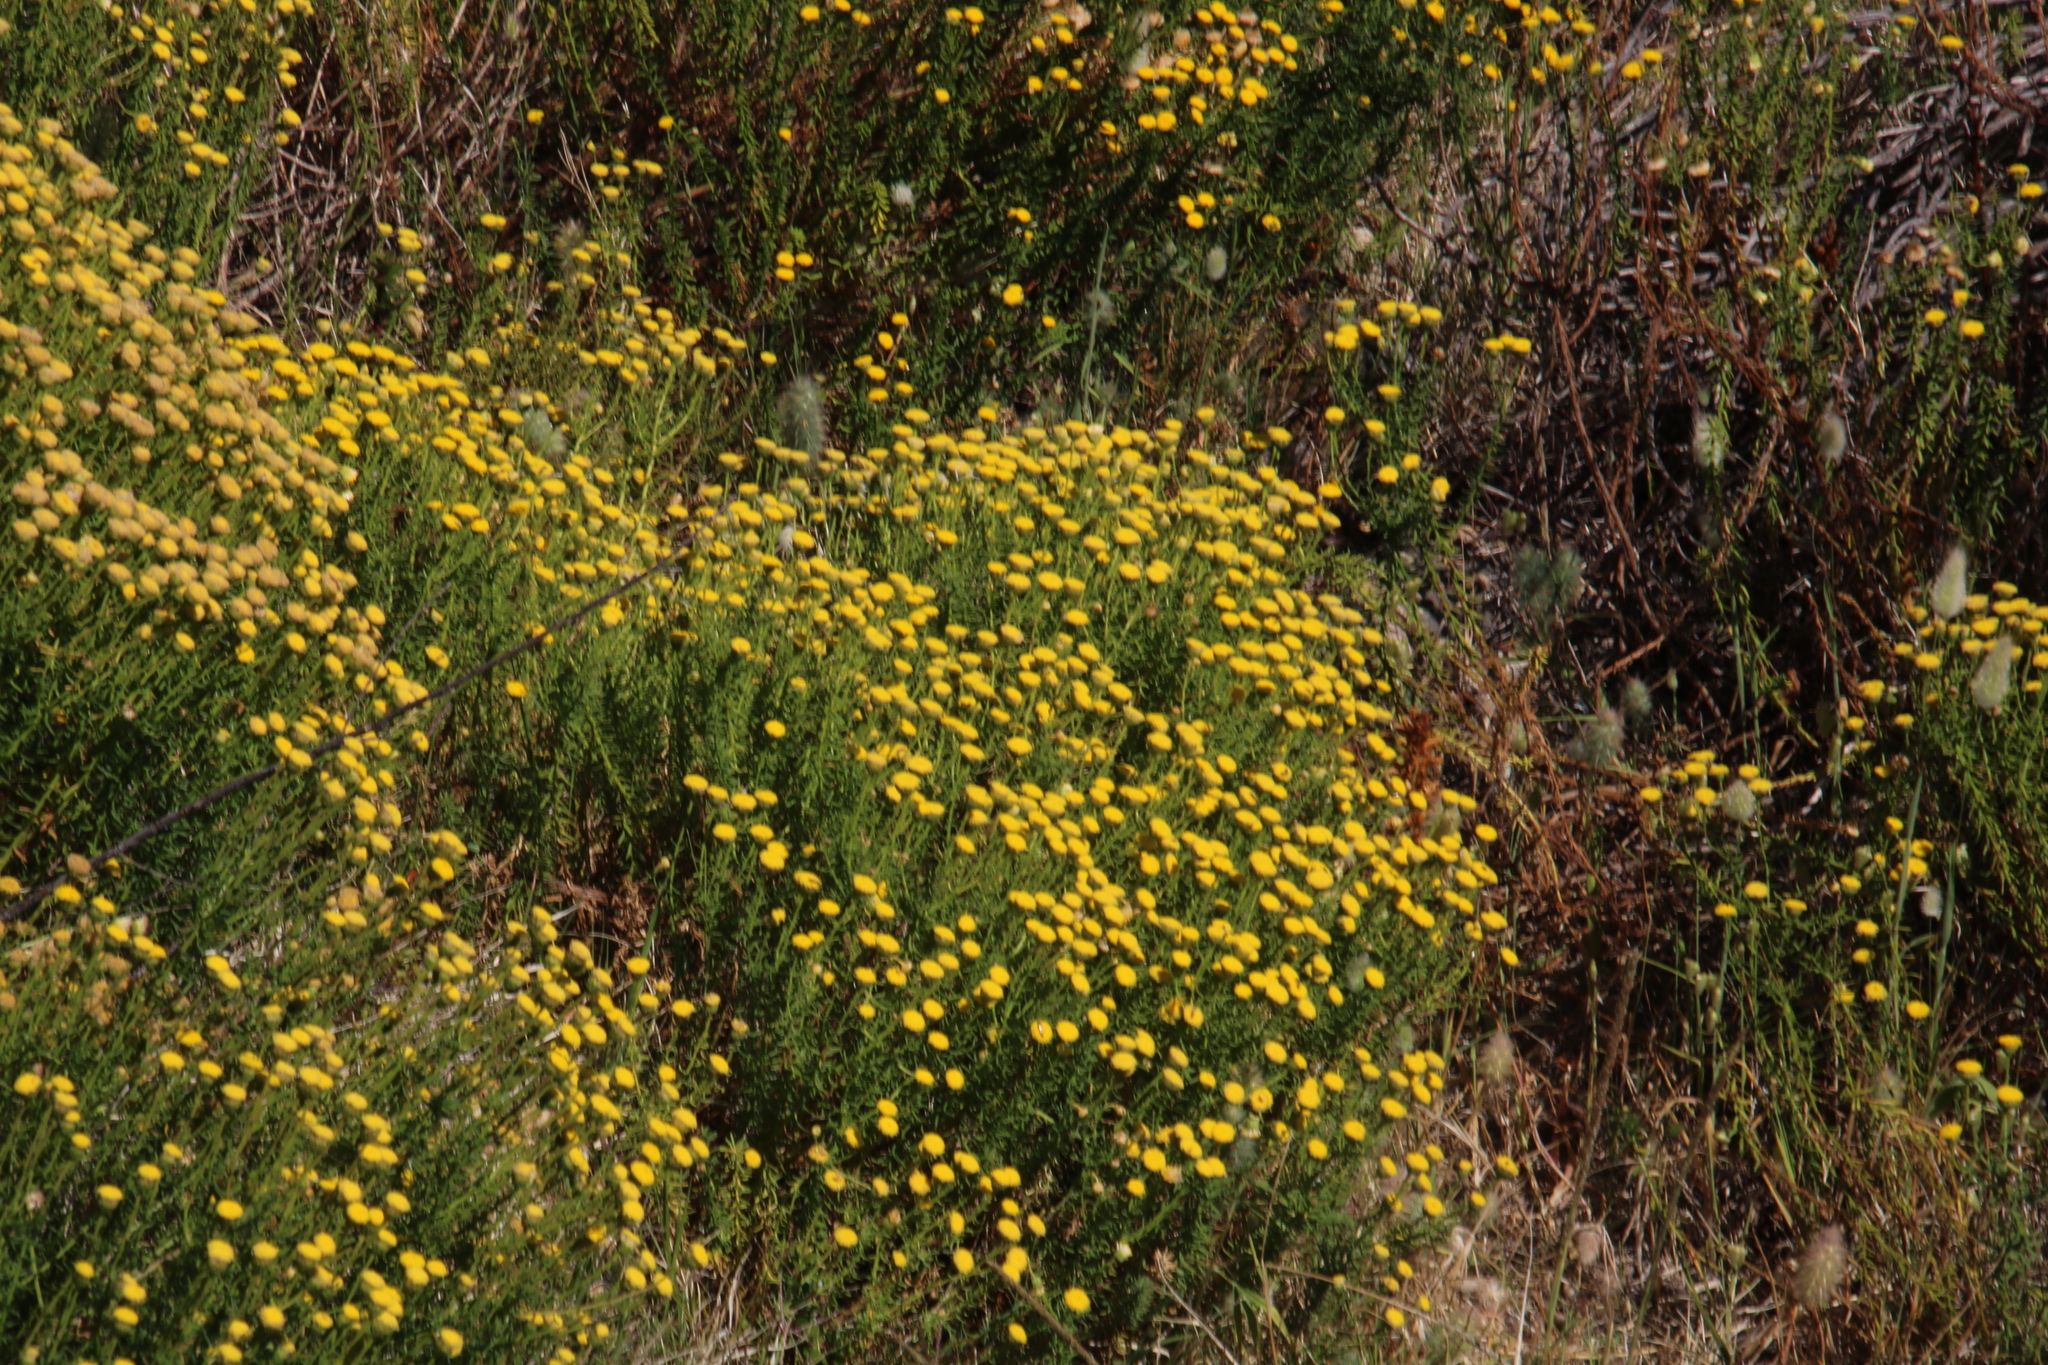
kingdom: Plantae
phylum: Tracheophyta
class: Magnoliopsida
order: Asterales
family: Asteraceae
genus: Chrysocoma
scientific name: Chrysocoma cernua
